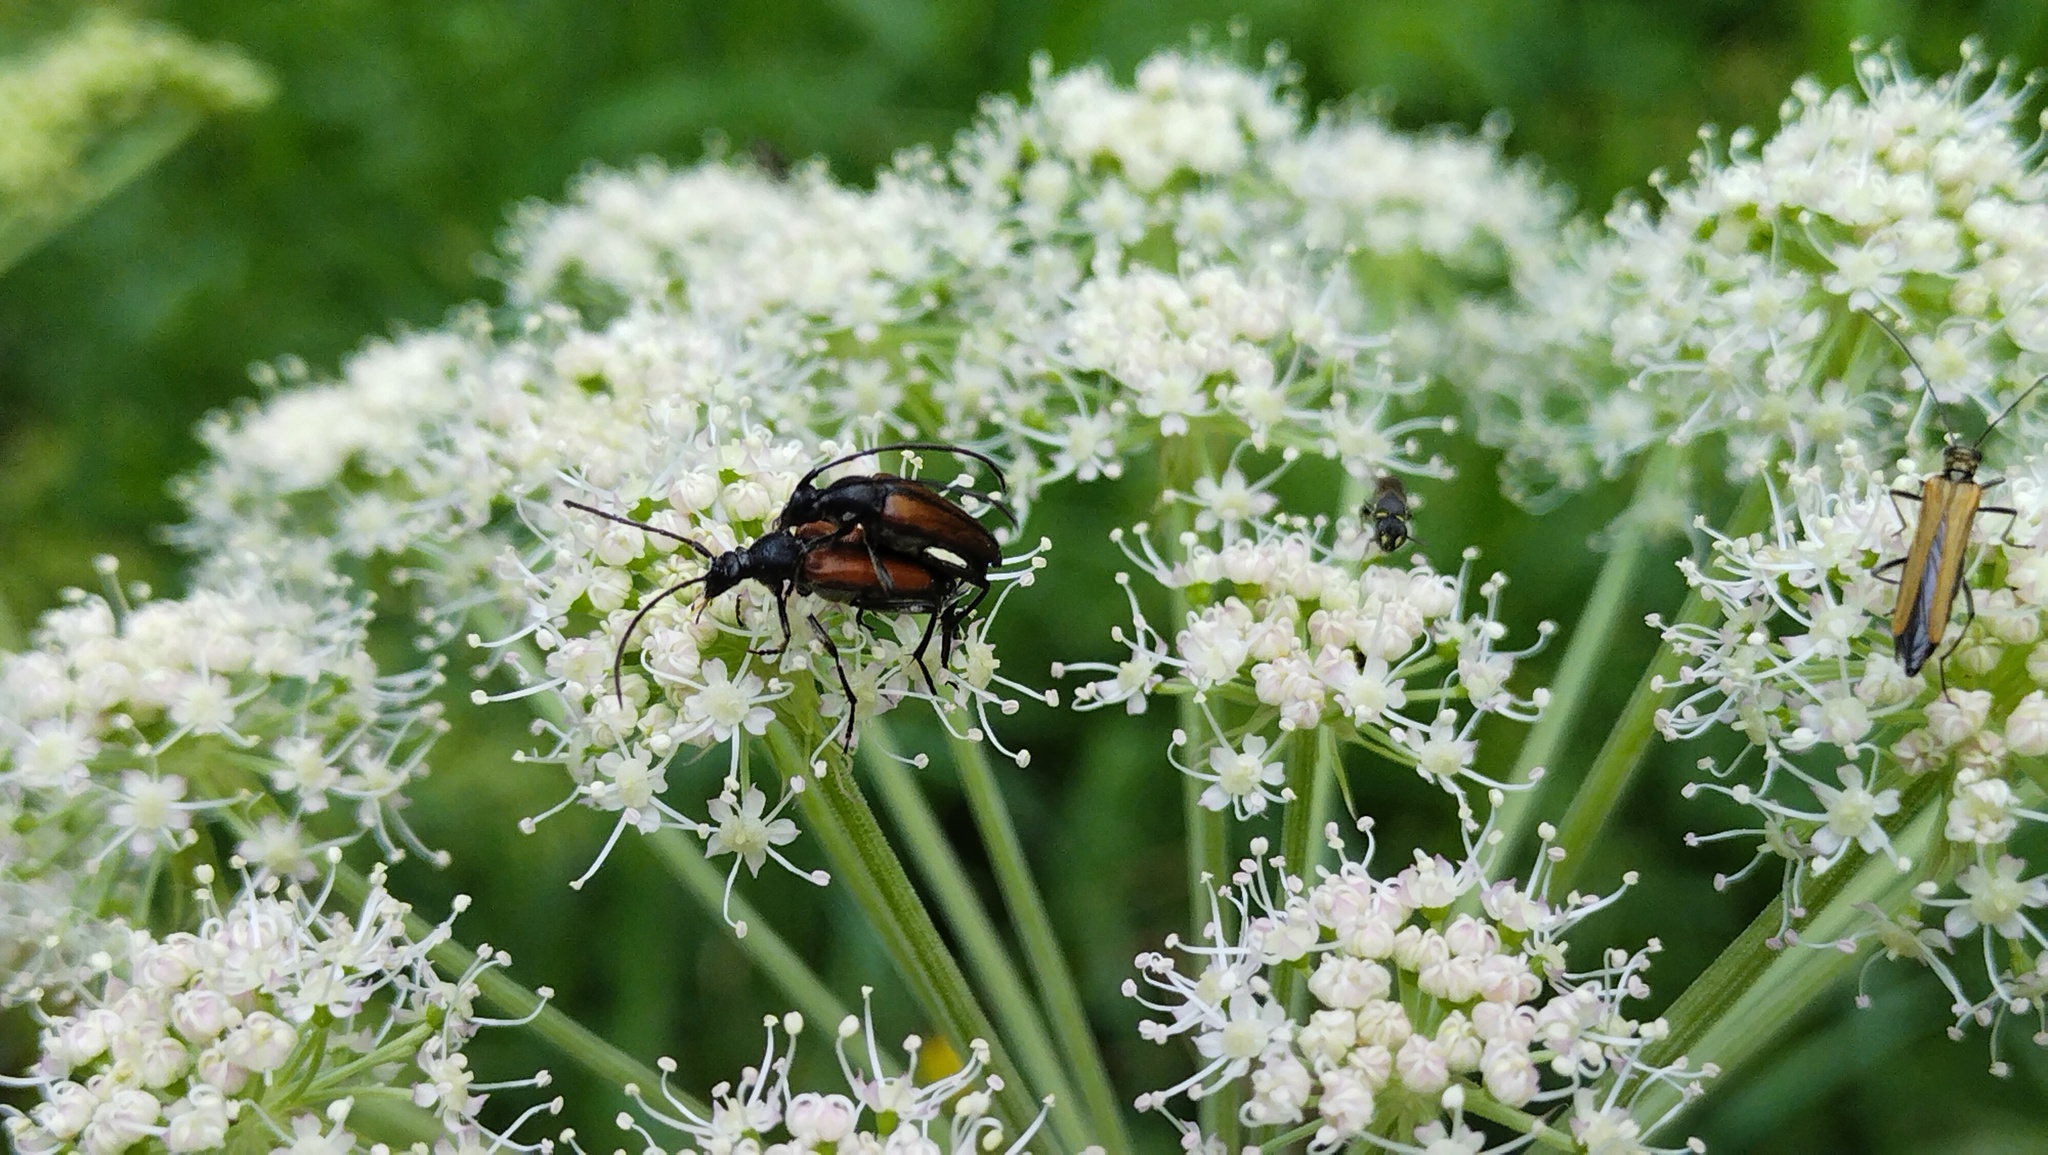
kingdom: Animalia
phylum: Arthropoda
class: Insecta
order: Coleoptera
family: Cerambycidae
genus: Stenurella
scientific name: Stenurella melanura
